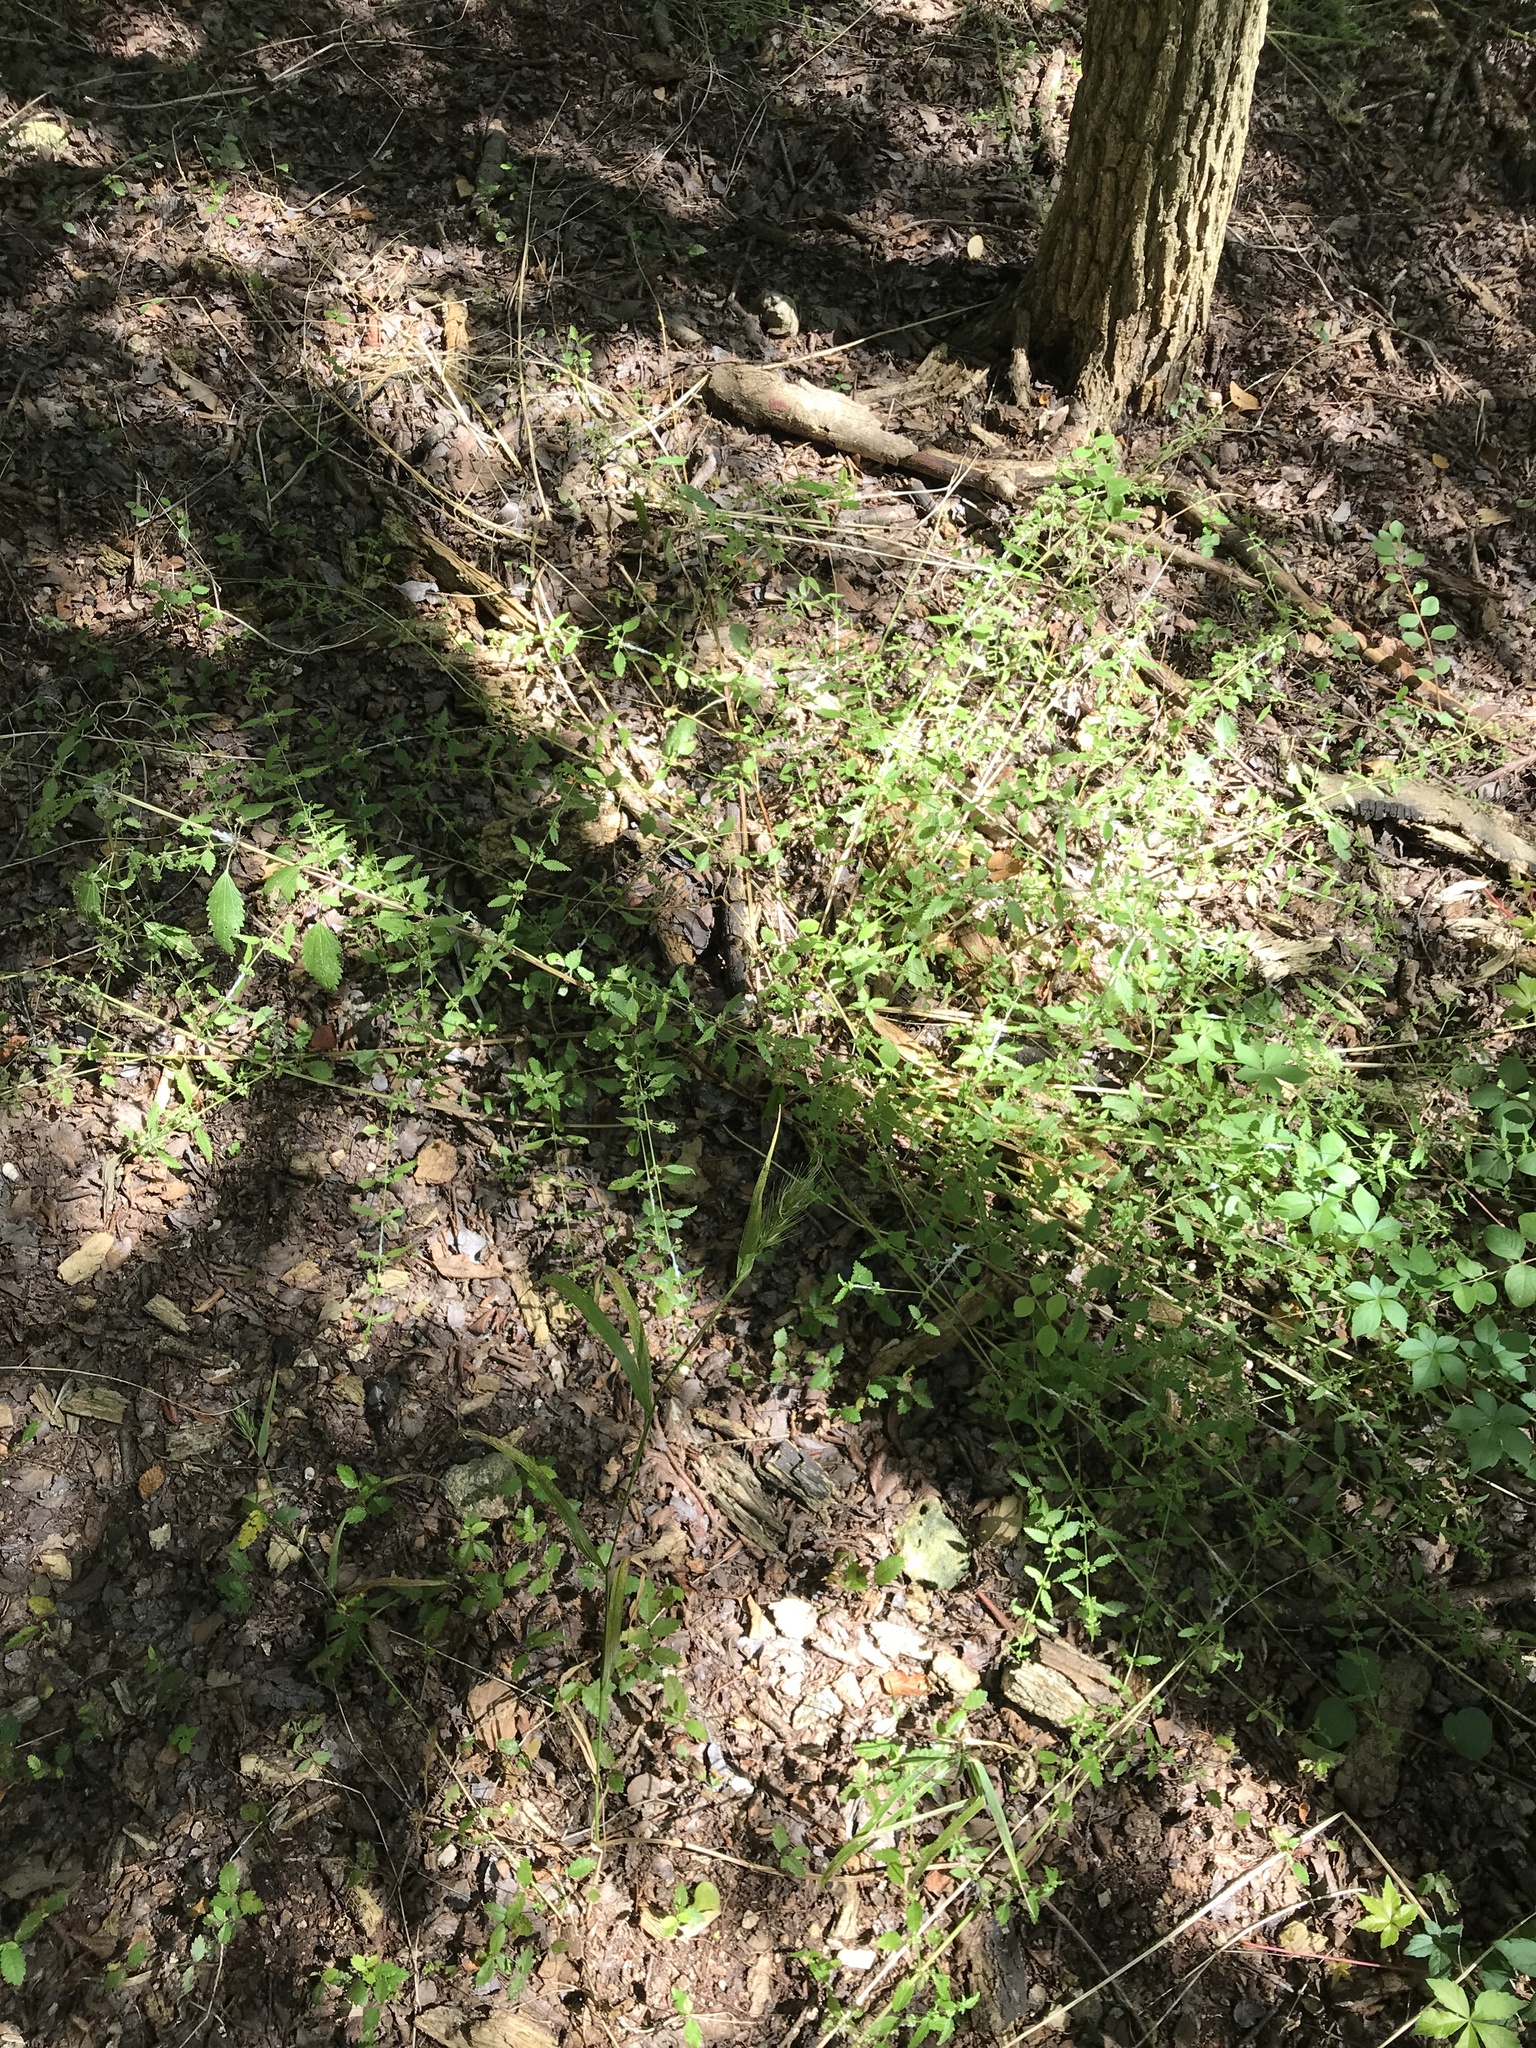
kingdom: Plantae
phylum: Tracheophyta
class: Magnoliopsida
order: Rosales
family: Urticaceae
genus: Urtica
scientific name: Urtica chamaedryoides
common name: Heart-leaf nettle
